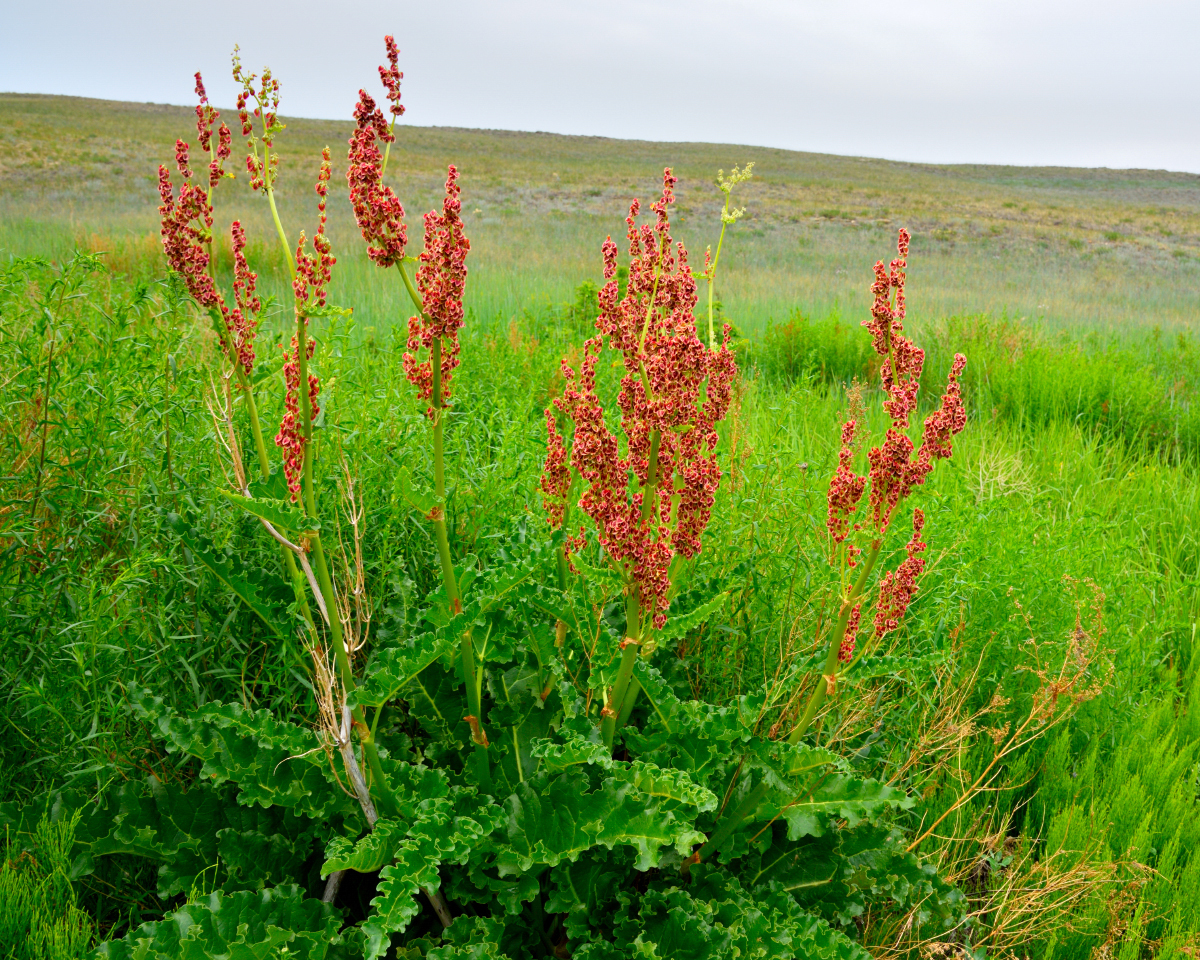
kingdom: Plantae
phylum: Tracheophyta
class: Magnoliopsida
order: Caryophyllales
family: Polygonaceae
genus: Rheum
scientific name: Rheum rhabarbarum
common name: Garden rhubarb
